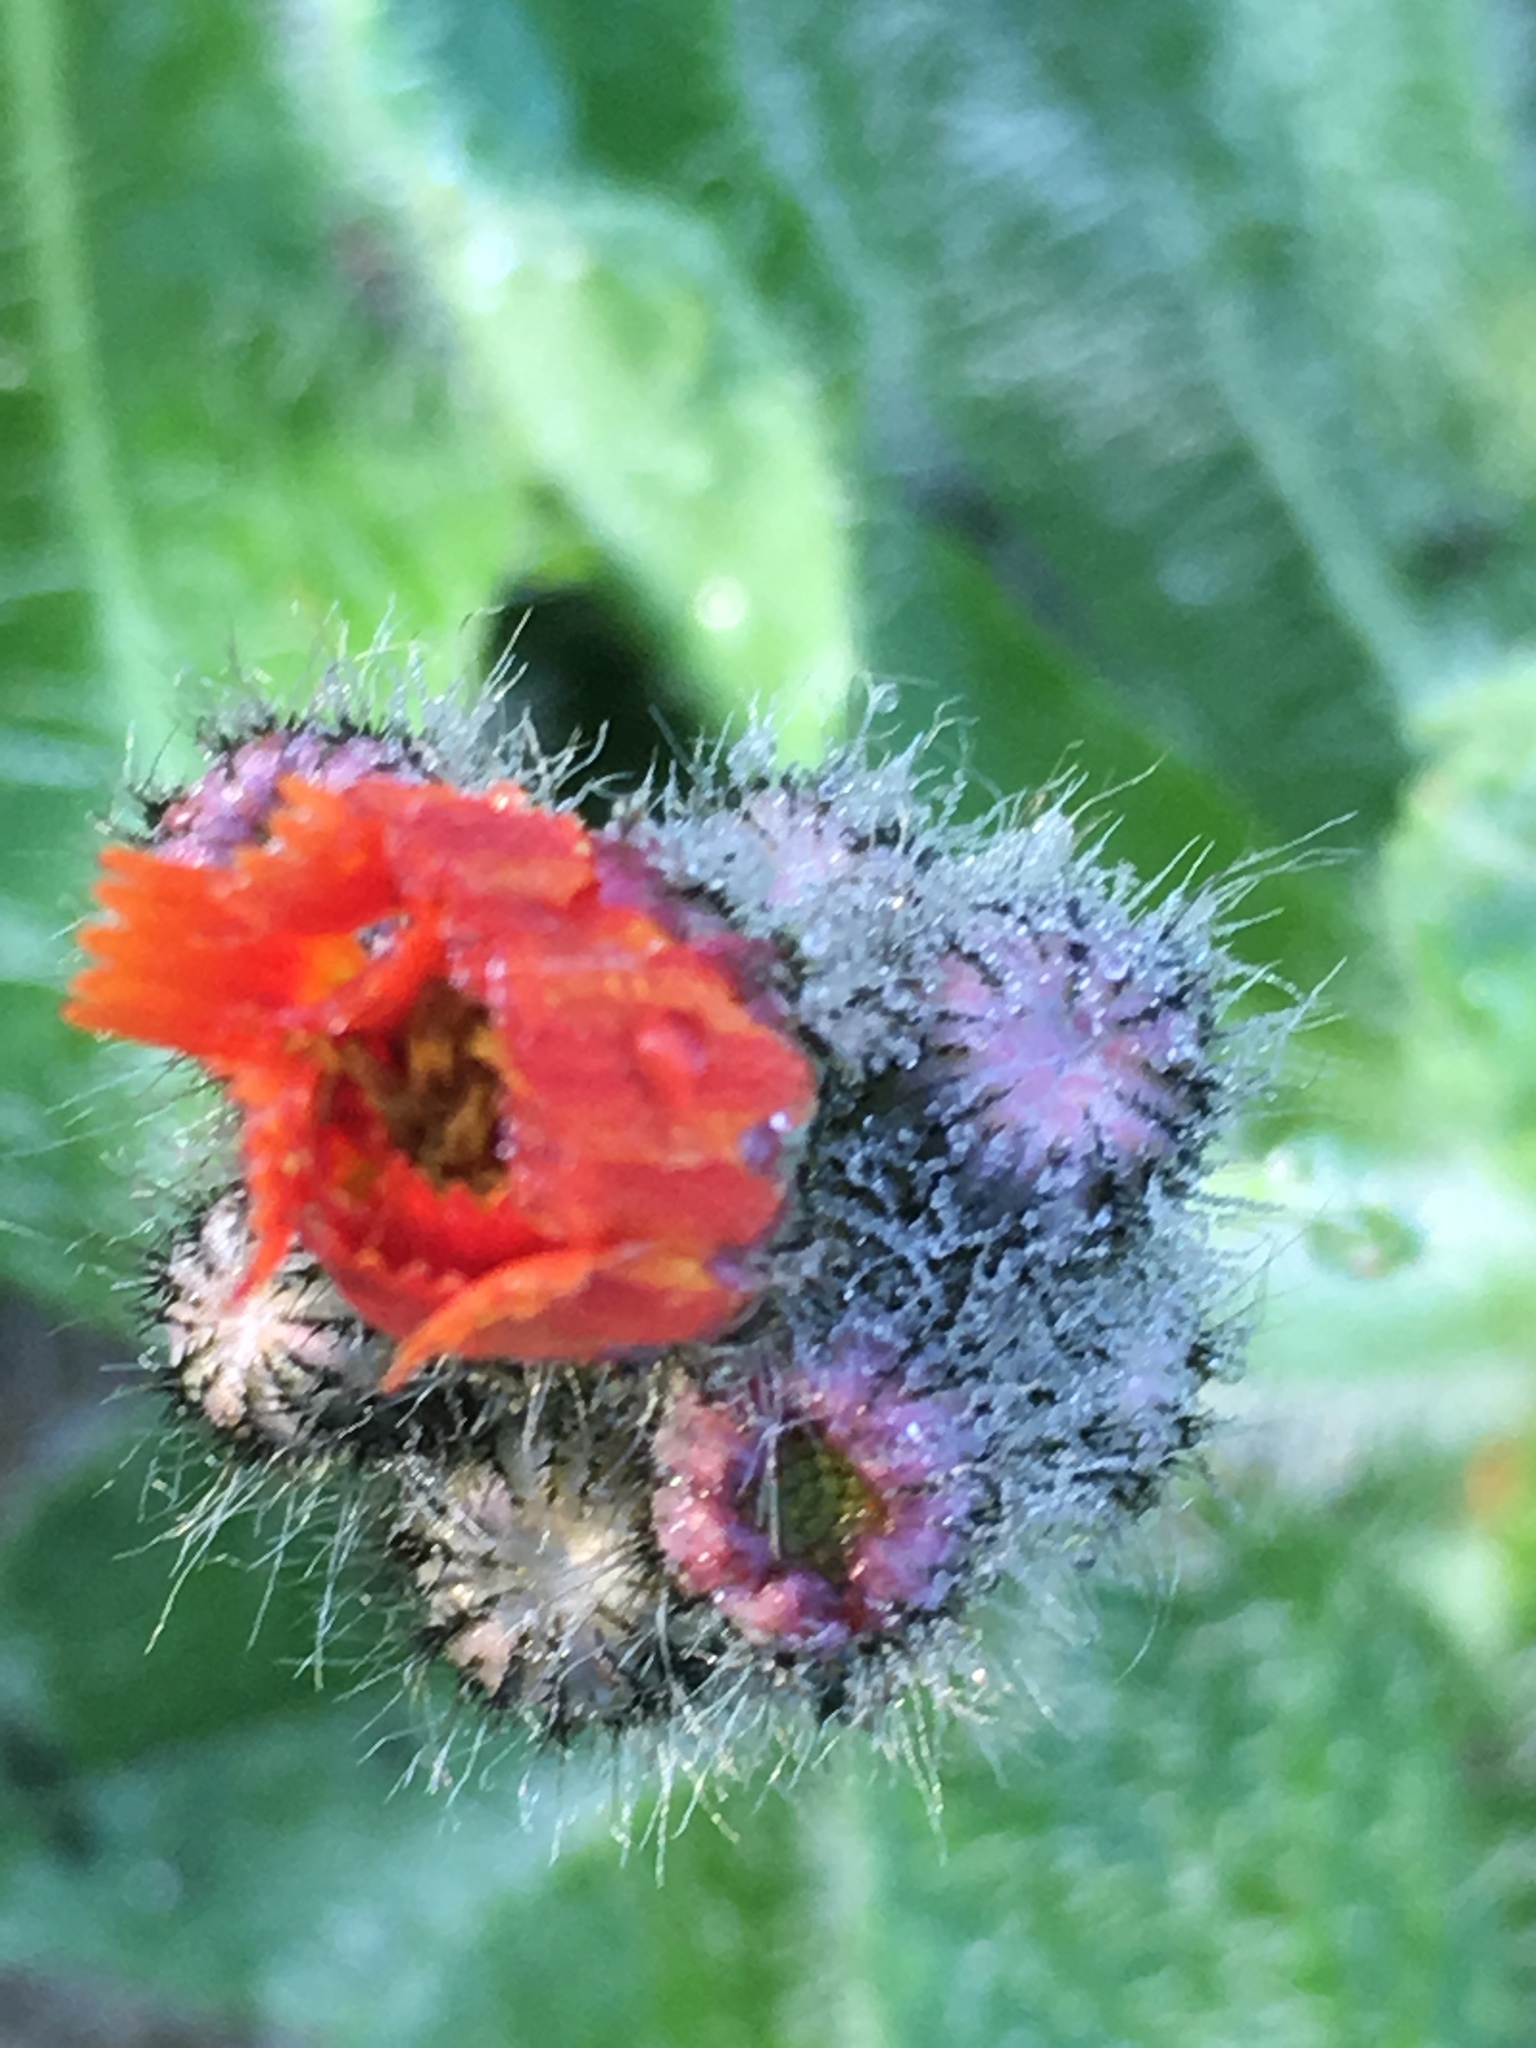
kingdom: Plantae
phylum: Tracheophyta
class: Magnoliopsida
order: Asterales
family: Asteraceae
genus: Pilosella
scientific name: Pilosella aurantiaca
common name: Fox-and-cubs
